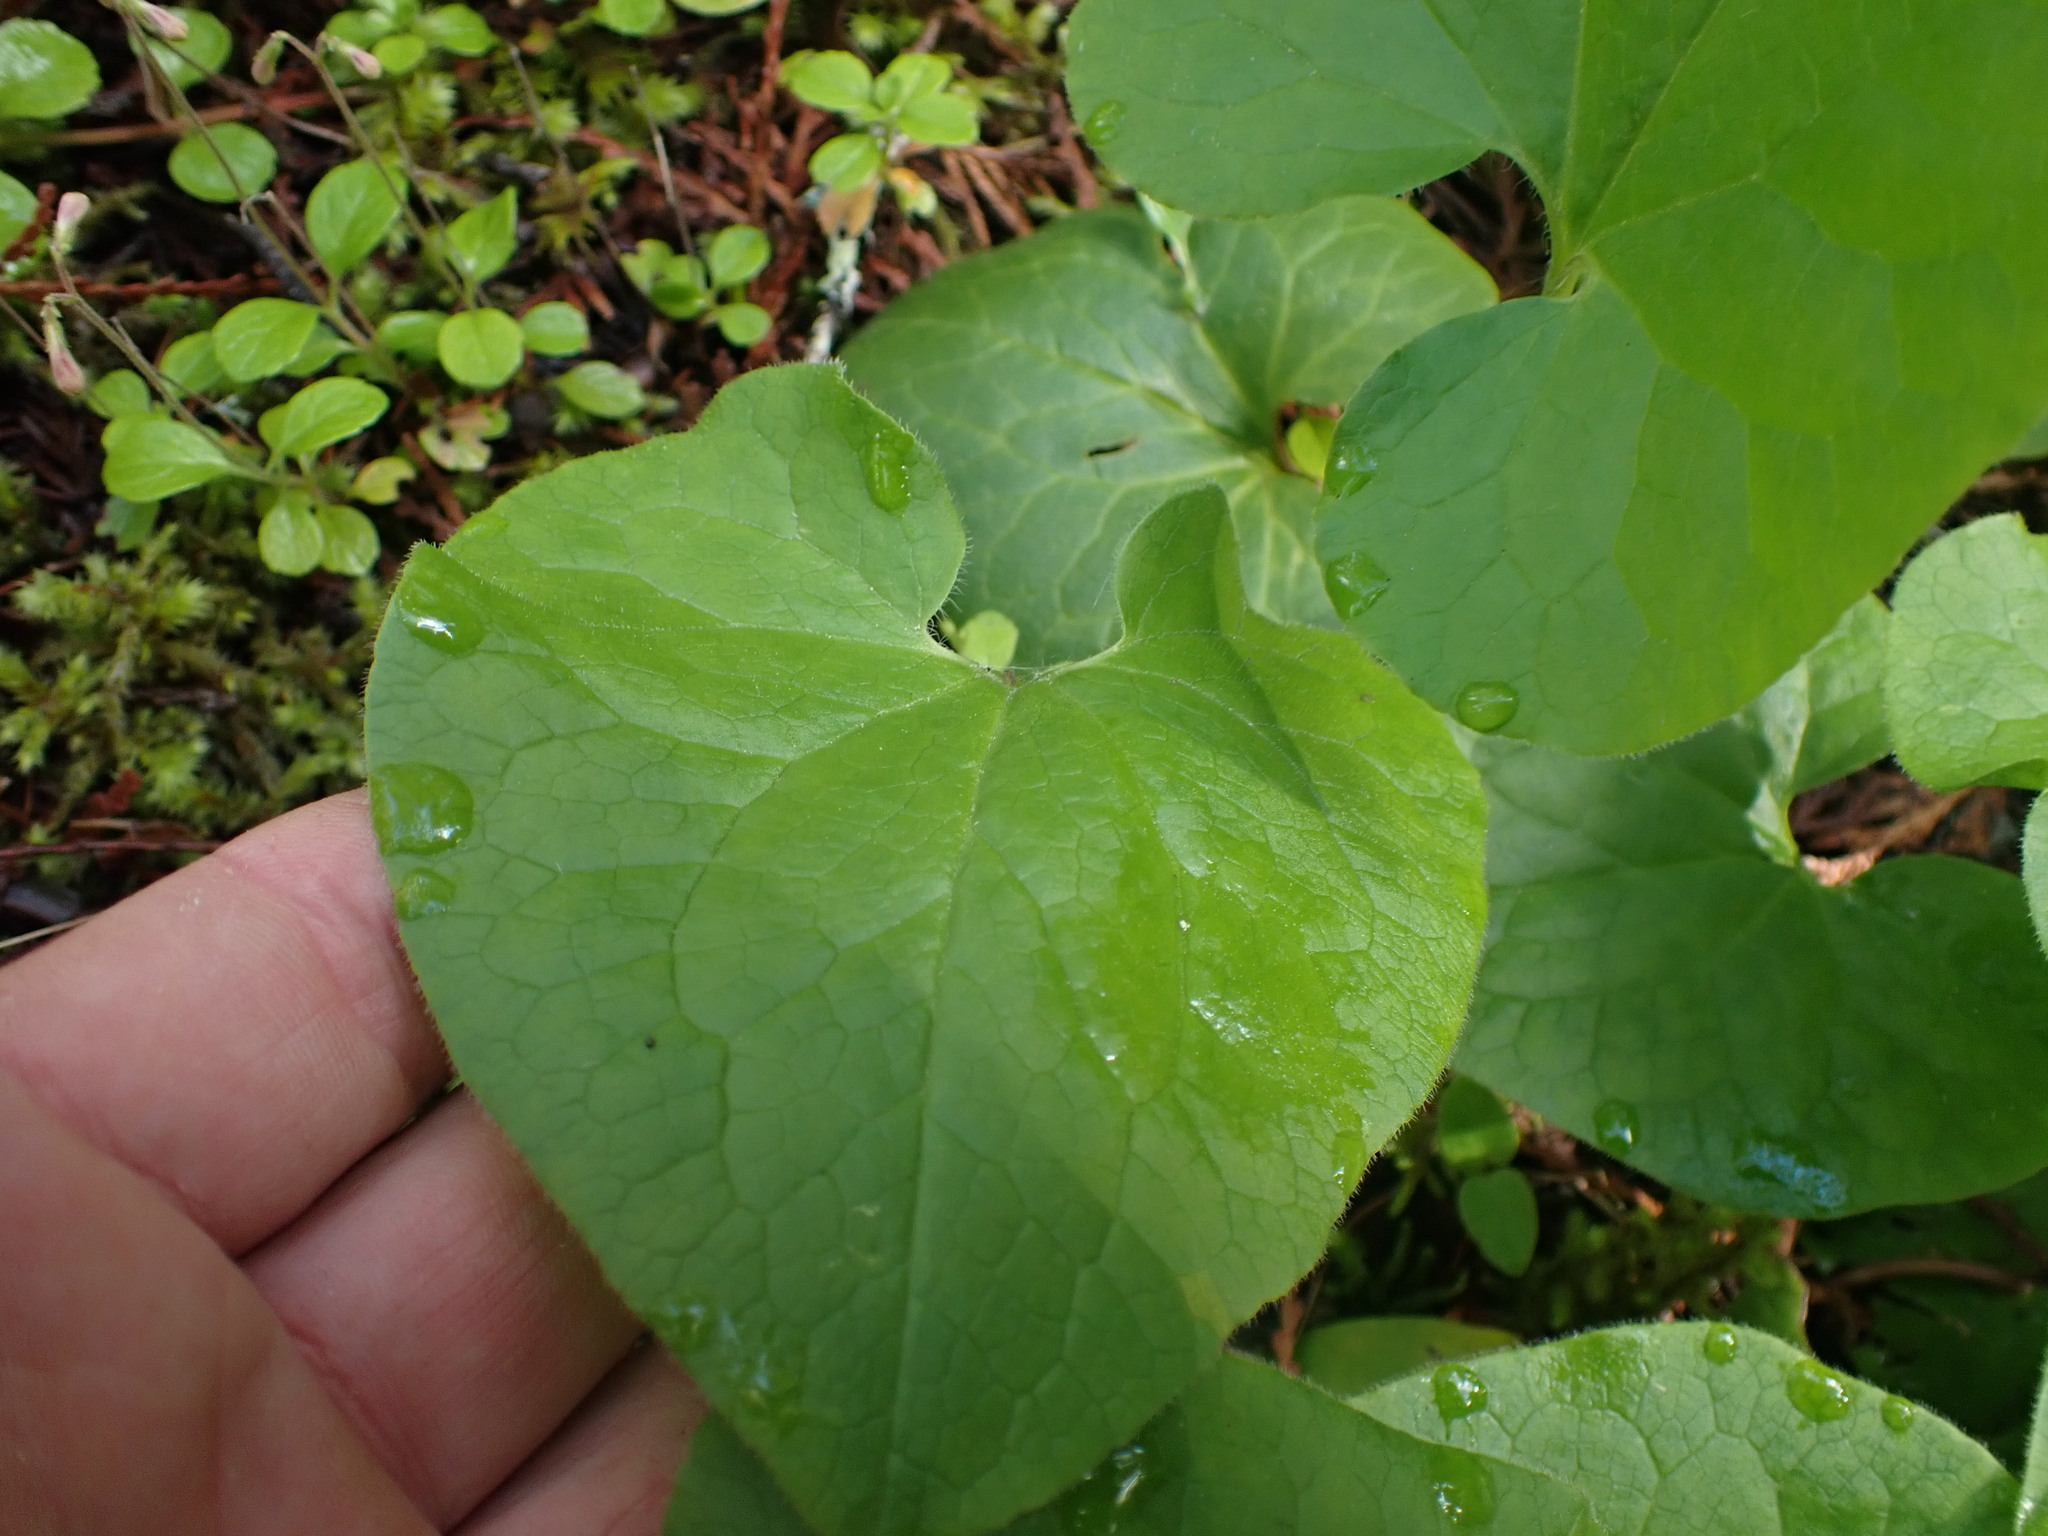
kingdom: Plantae
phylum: Tracheophyta
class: Magnoliopsida
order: Piperales
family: Aristolochiaceae
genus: Asarum
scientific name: Asarum caudatum
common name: Wild ginger
